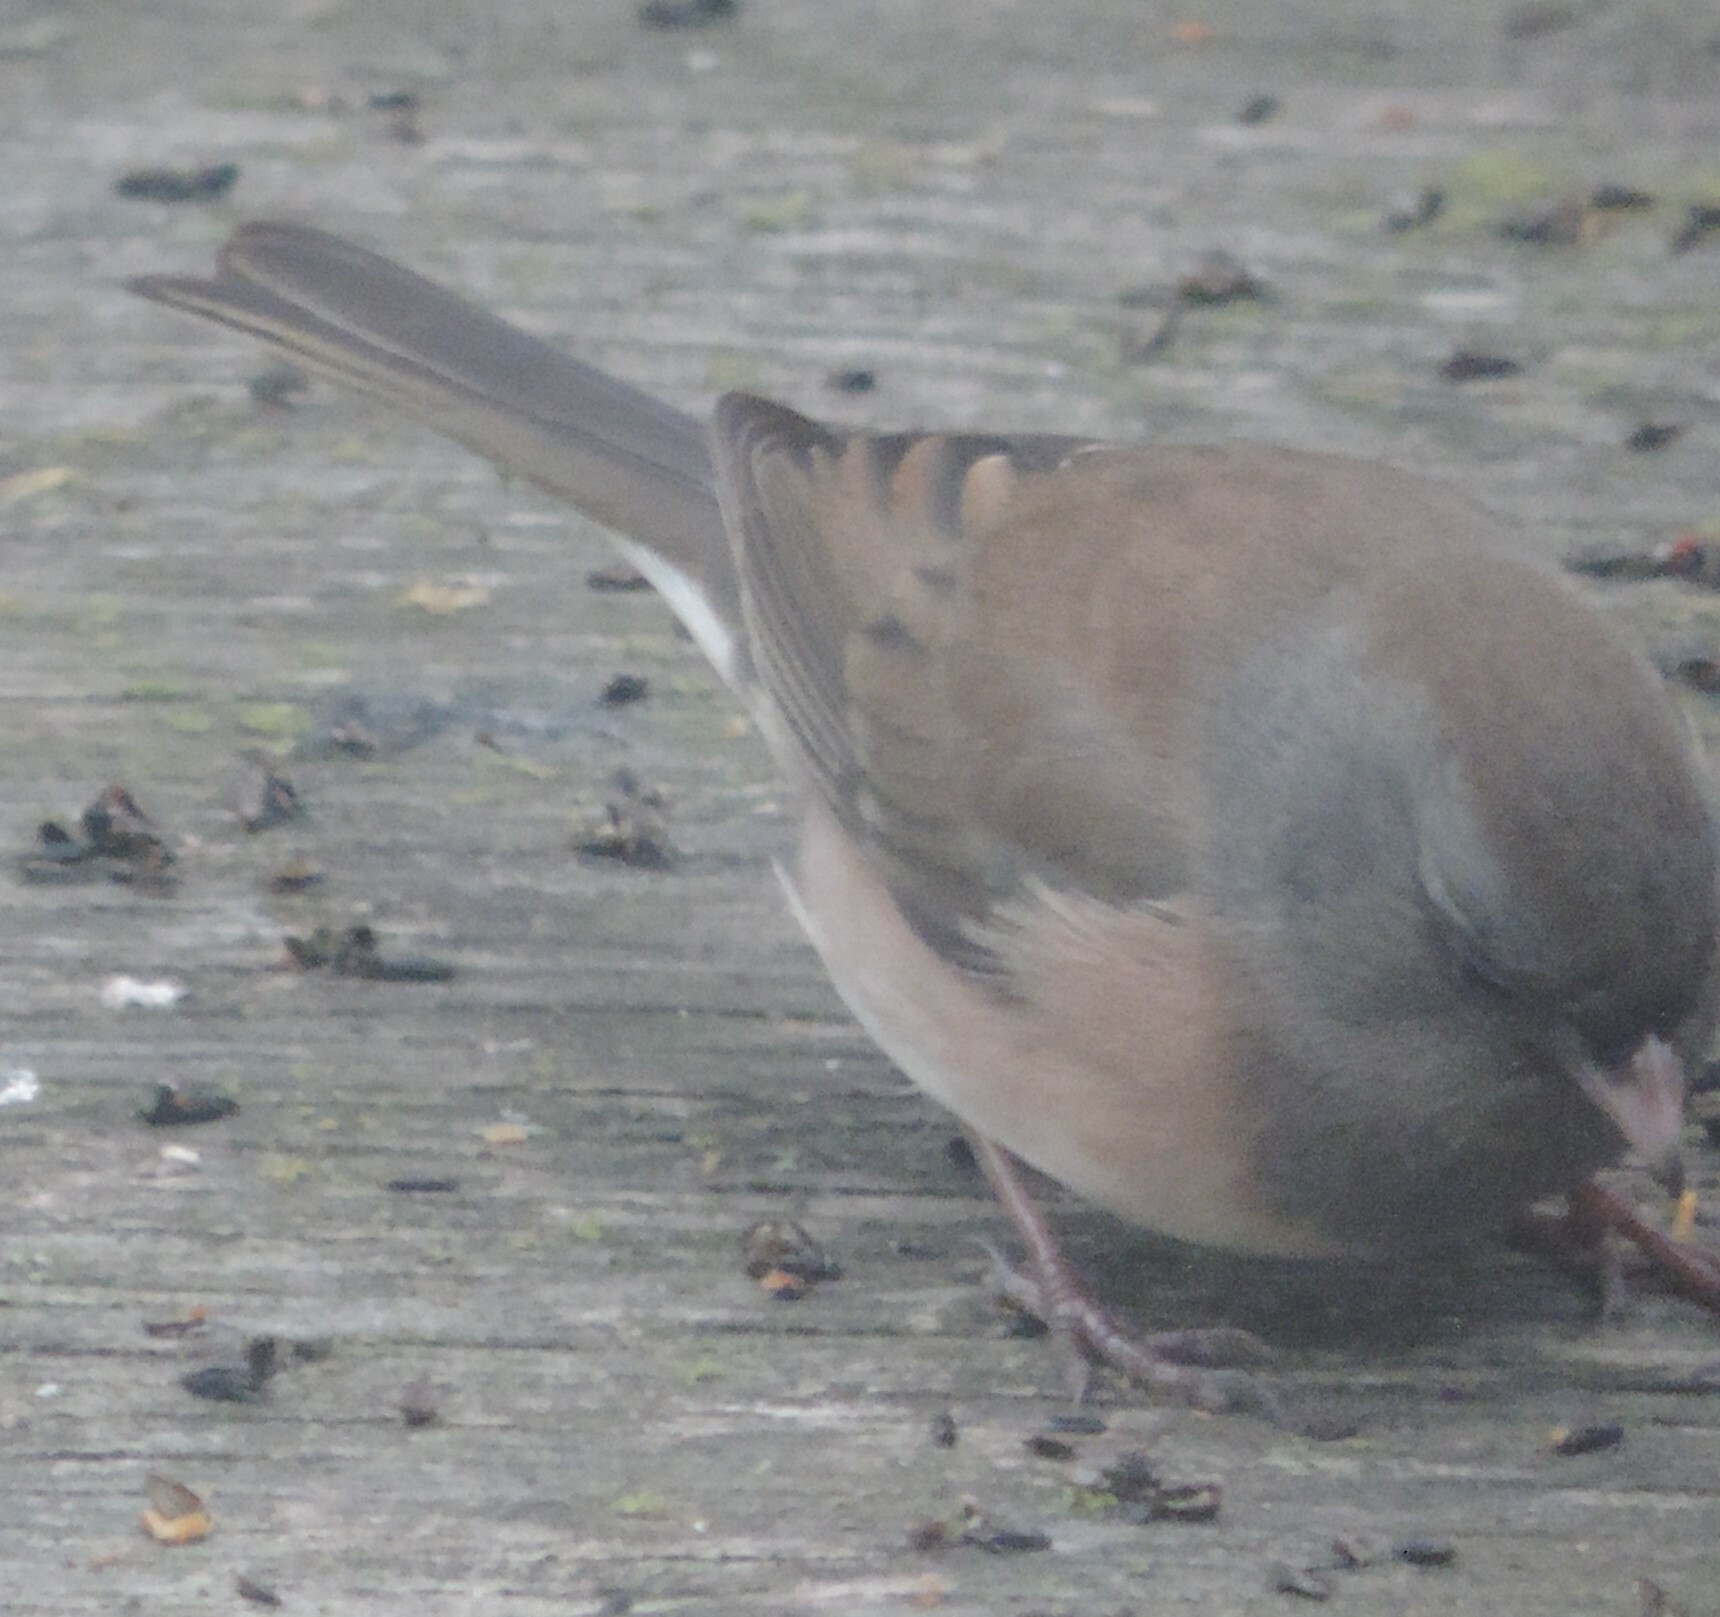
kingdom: Animalia
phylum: Chordata
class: Aves
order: Passeriformes
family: Passerellidae
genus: Junco
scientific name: Junco hyemalis
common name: Dark-eyed junco
